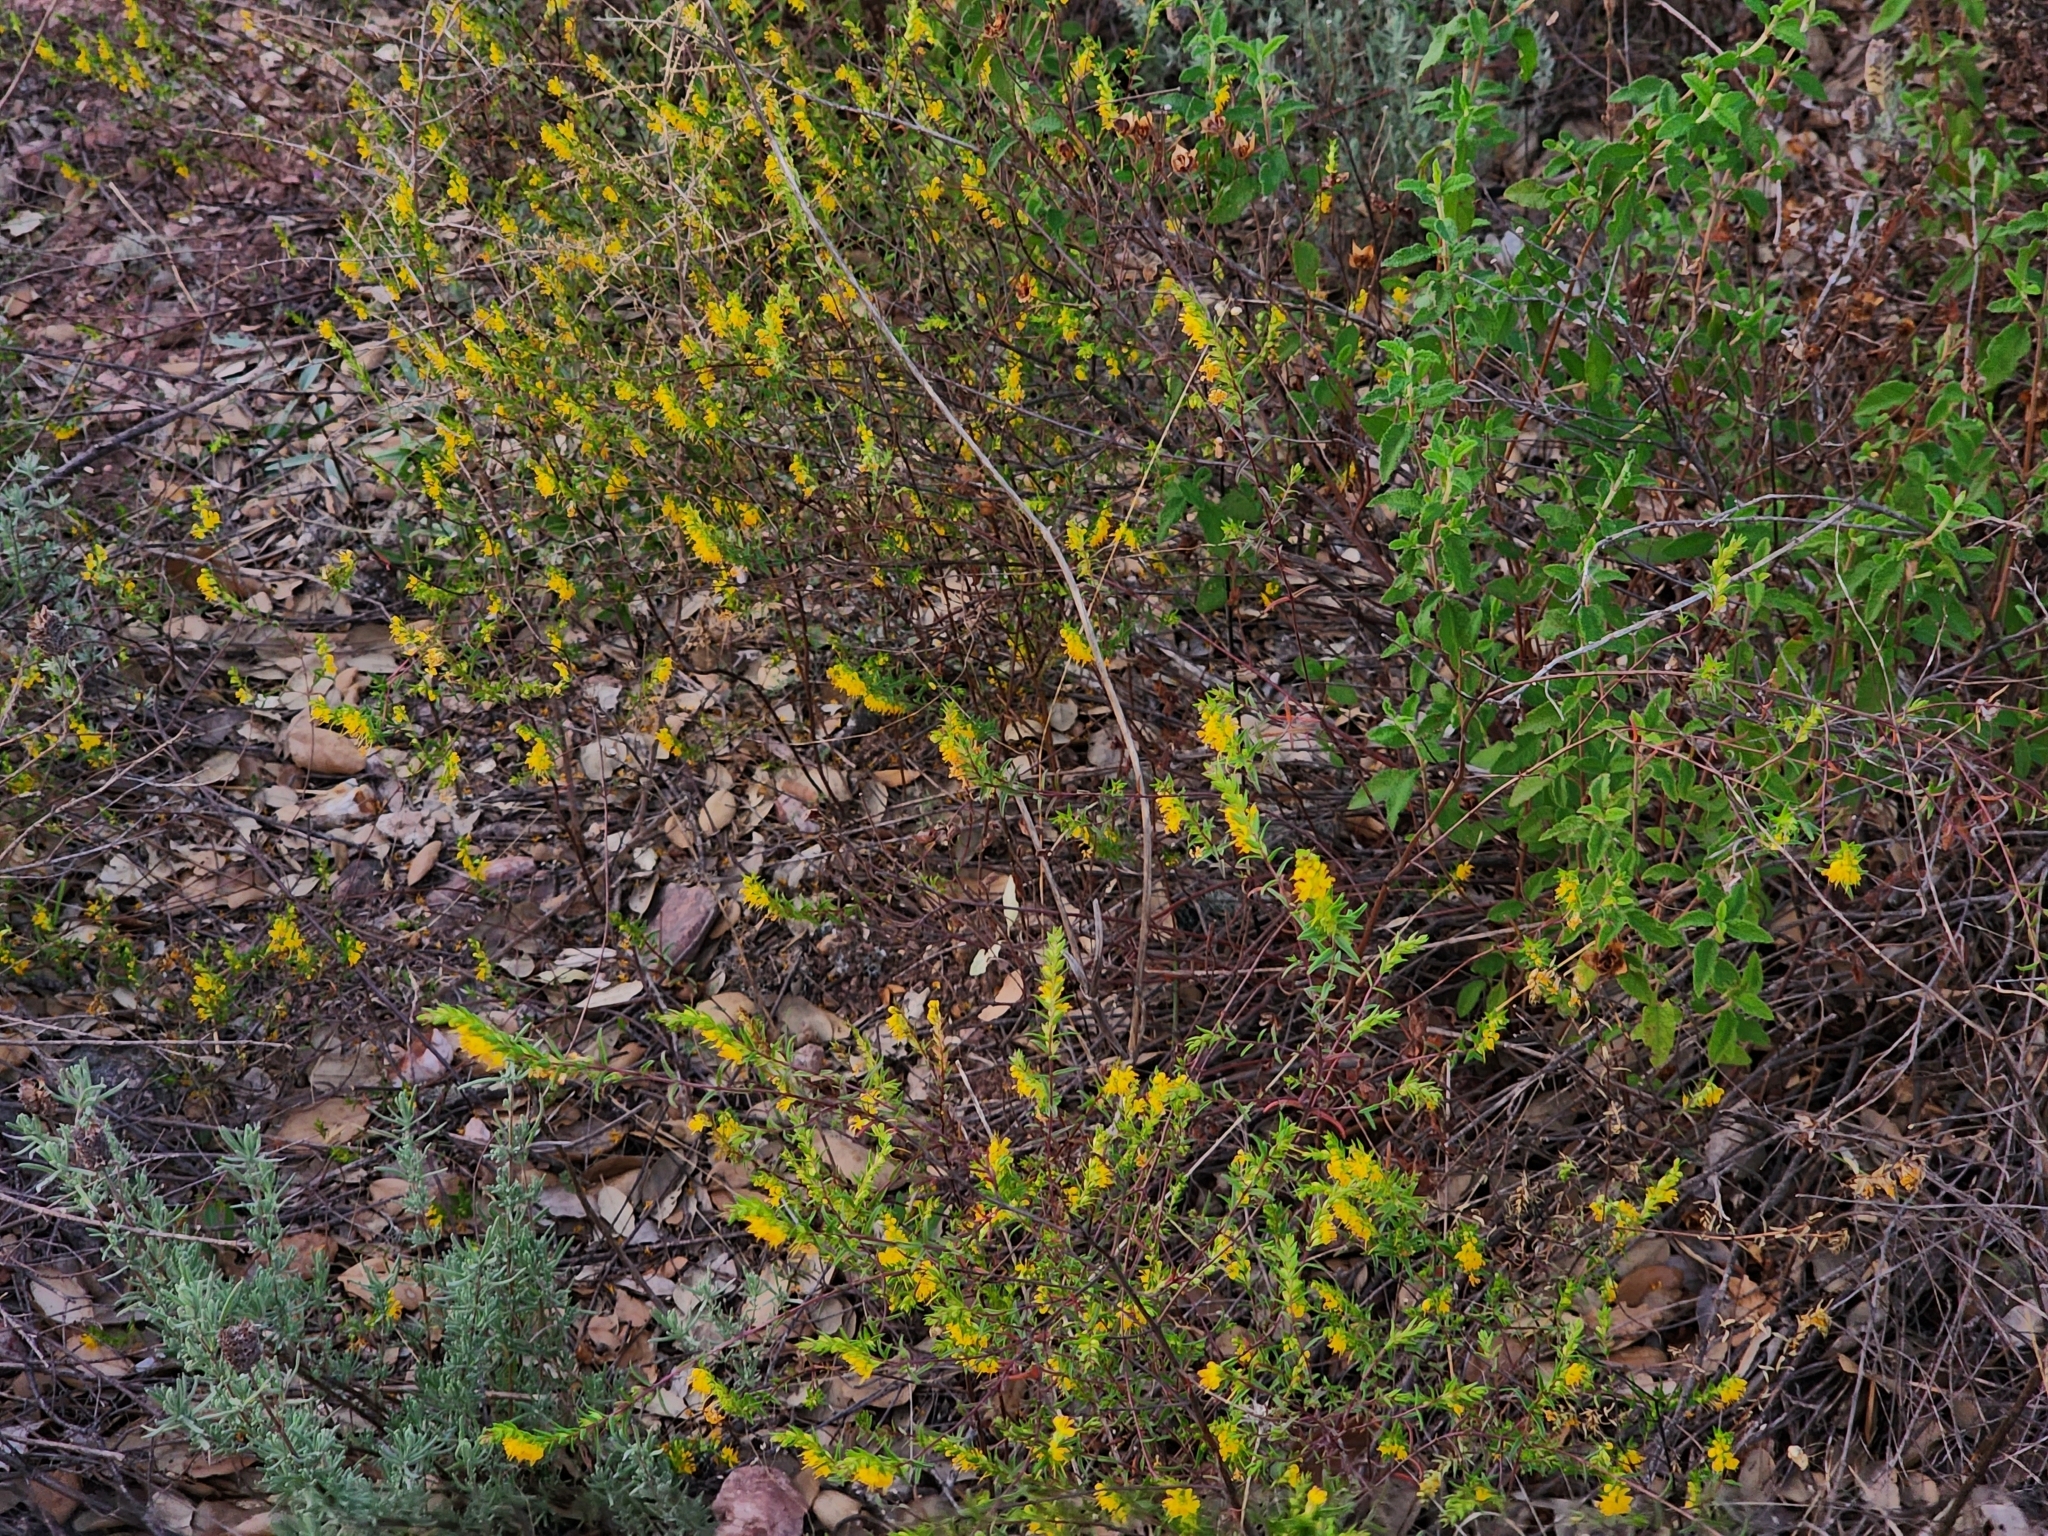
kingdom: Plantae
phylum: Tracheophyta
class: Magnoliopsida
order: Lamiales
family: Orobanchaceae
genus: Odontites
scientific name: Odontites luteus
